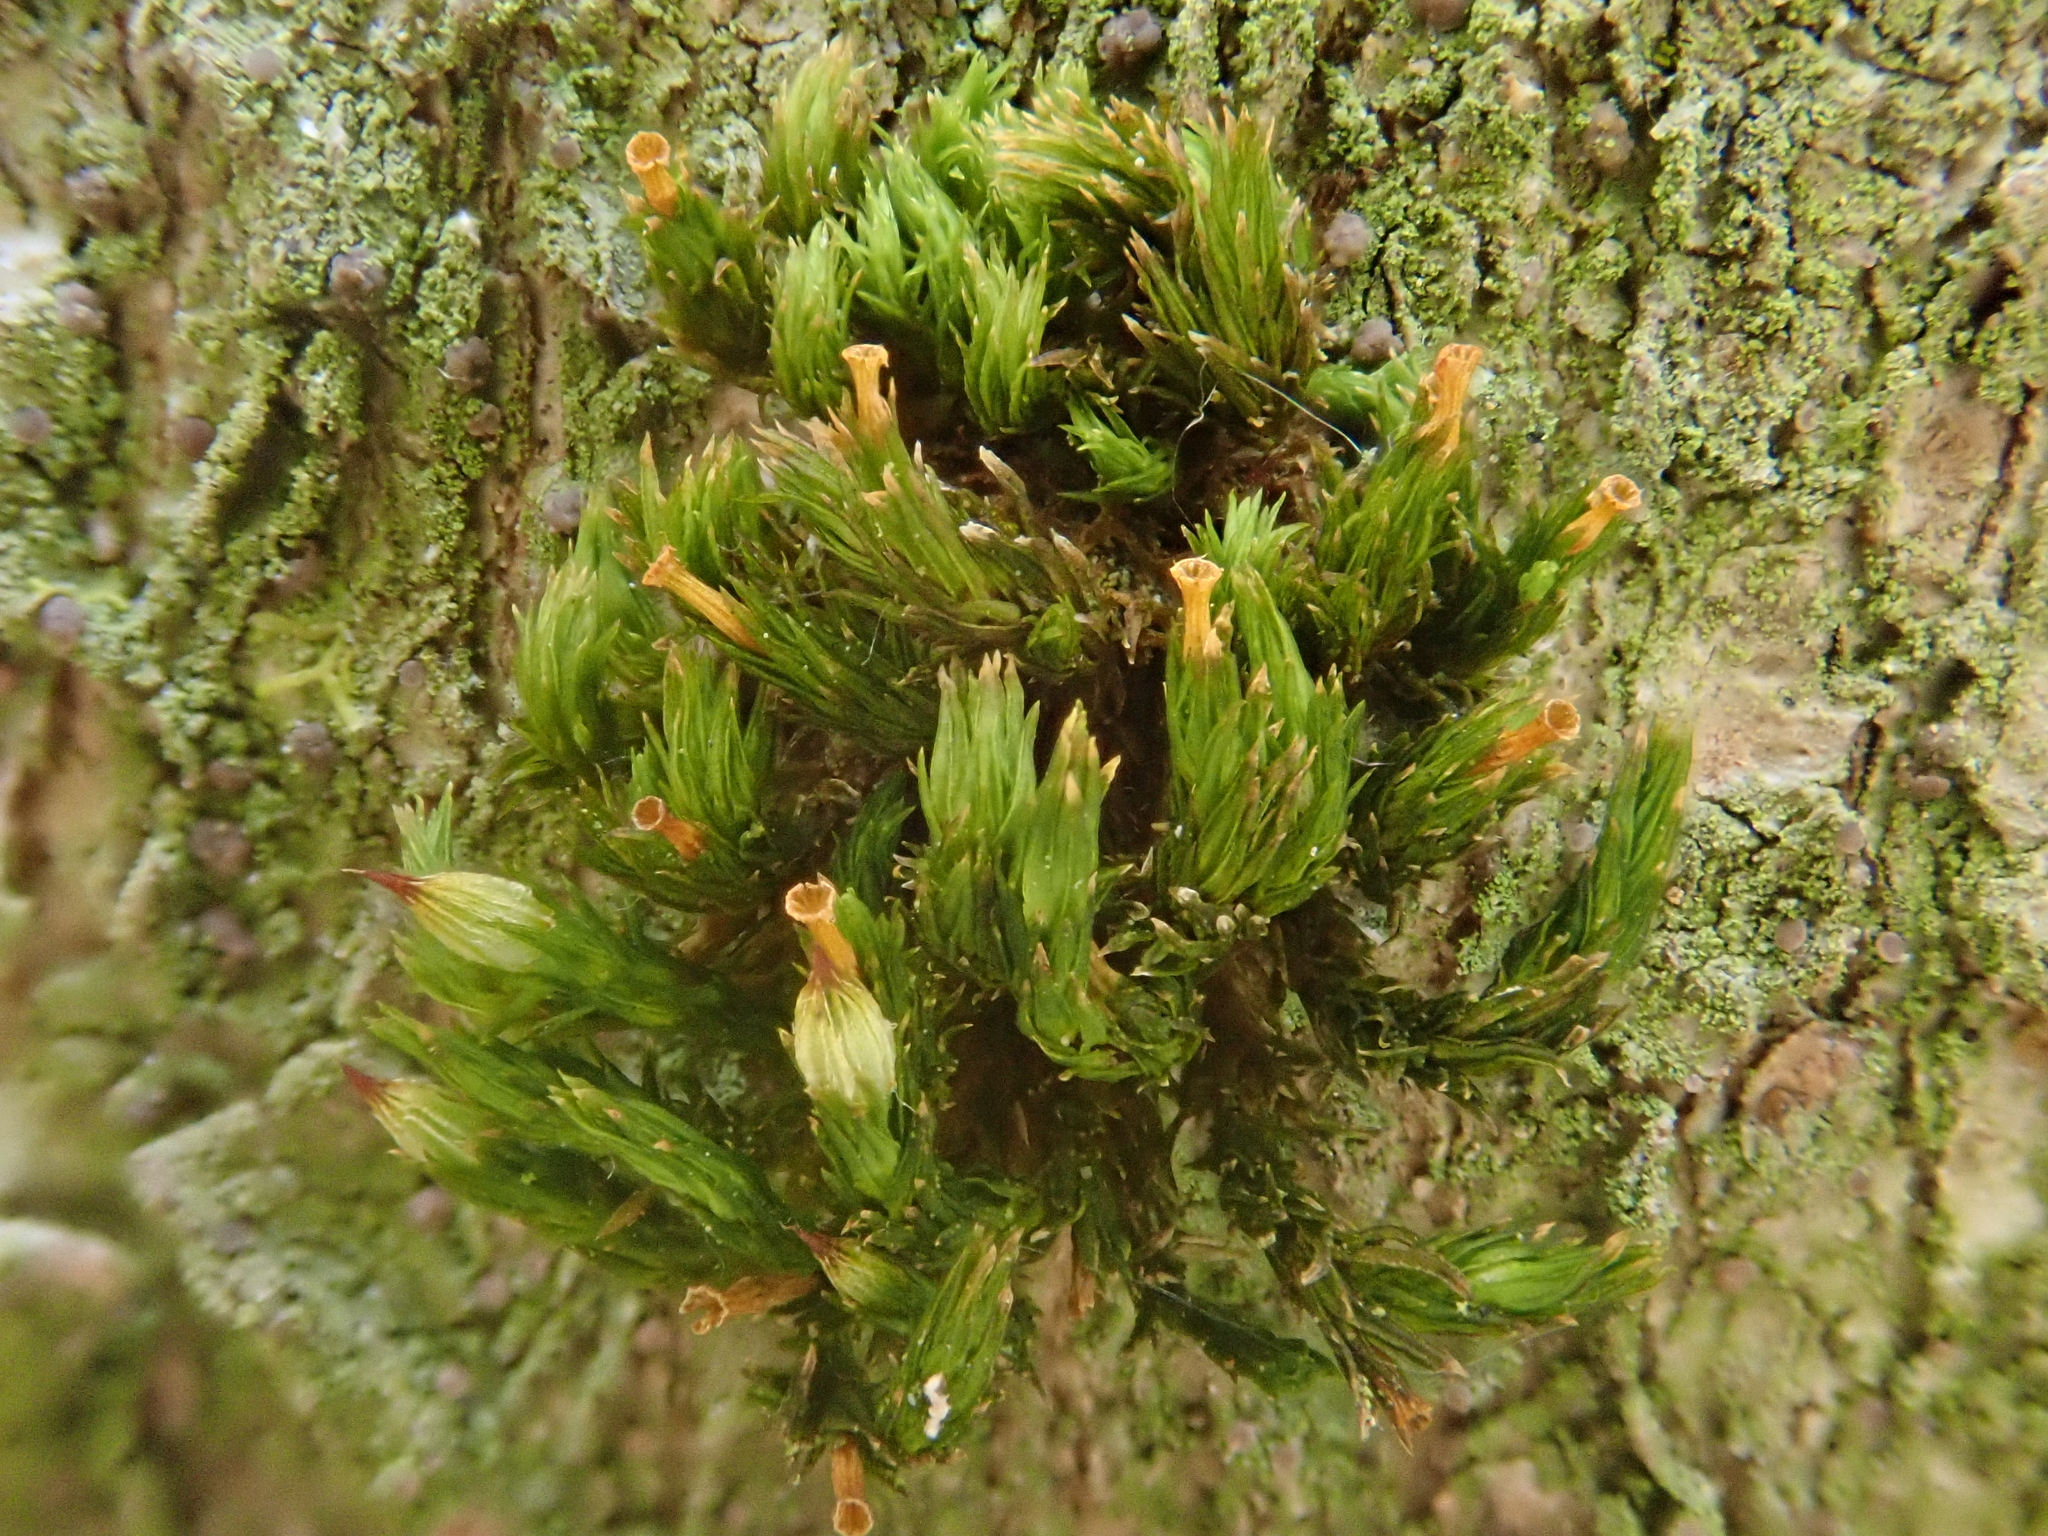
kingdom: Plantae
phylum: Bryophyta
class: Bryopsida
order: Orthotrichales
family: Orthotrichaceae
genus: Orthotrichum
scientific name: Orthotrichum stramineum
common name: Straw bristle-moss
